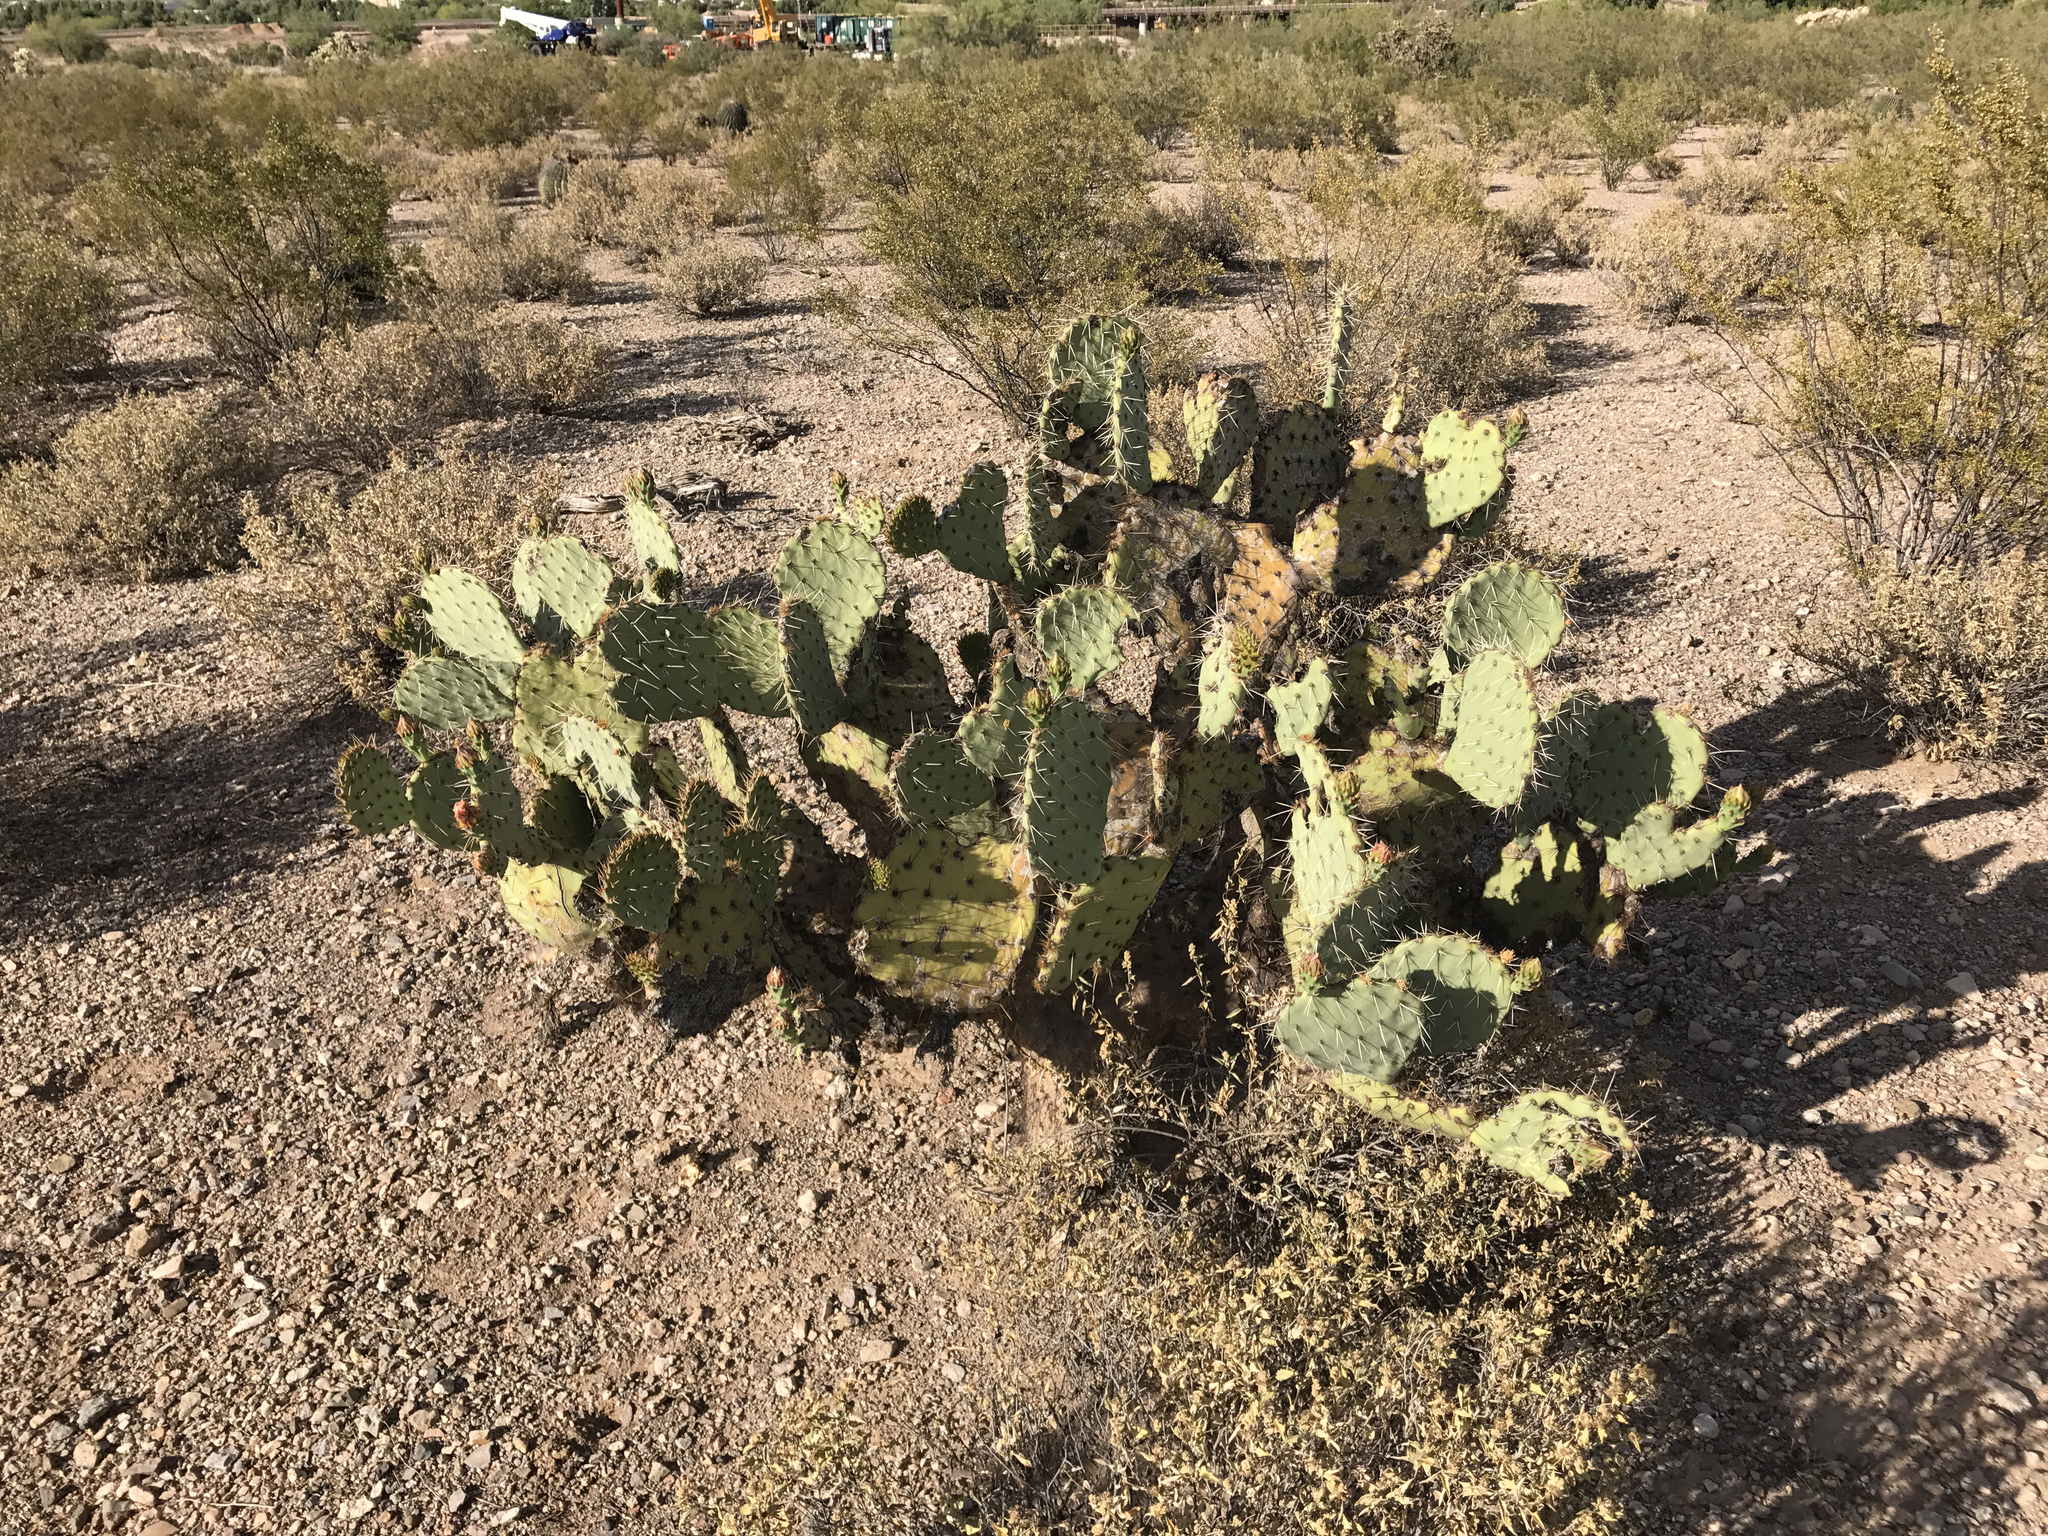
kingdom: Plantae
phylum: Tracheophyta
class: Magnoliopsida
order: Caryophyllales
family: Cactaceae
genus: Opuntia
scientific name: Opuntia engelmannii
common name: Cactus-apple
